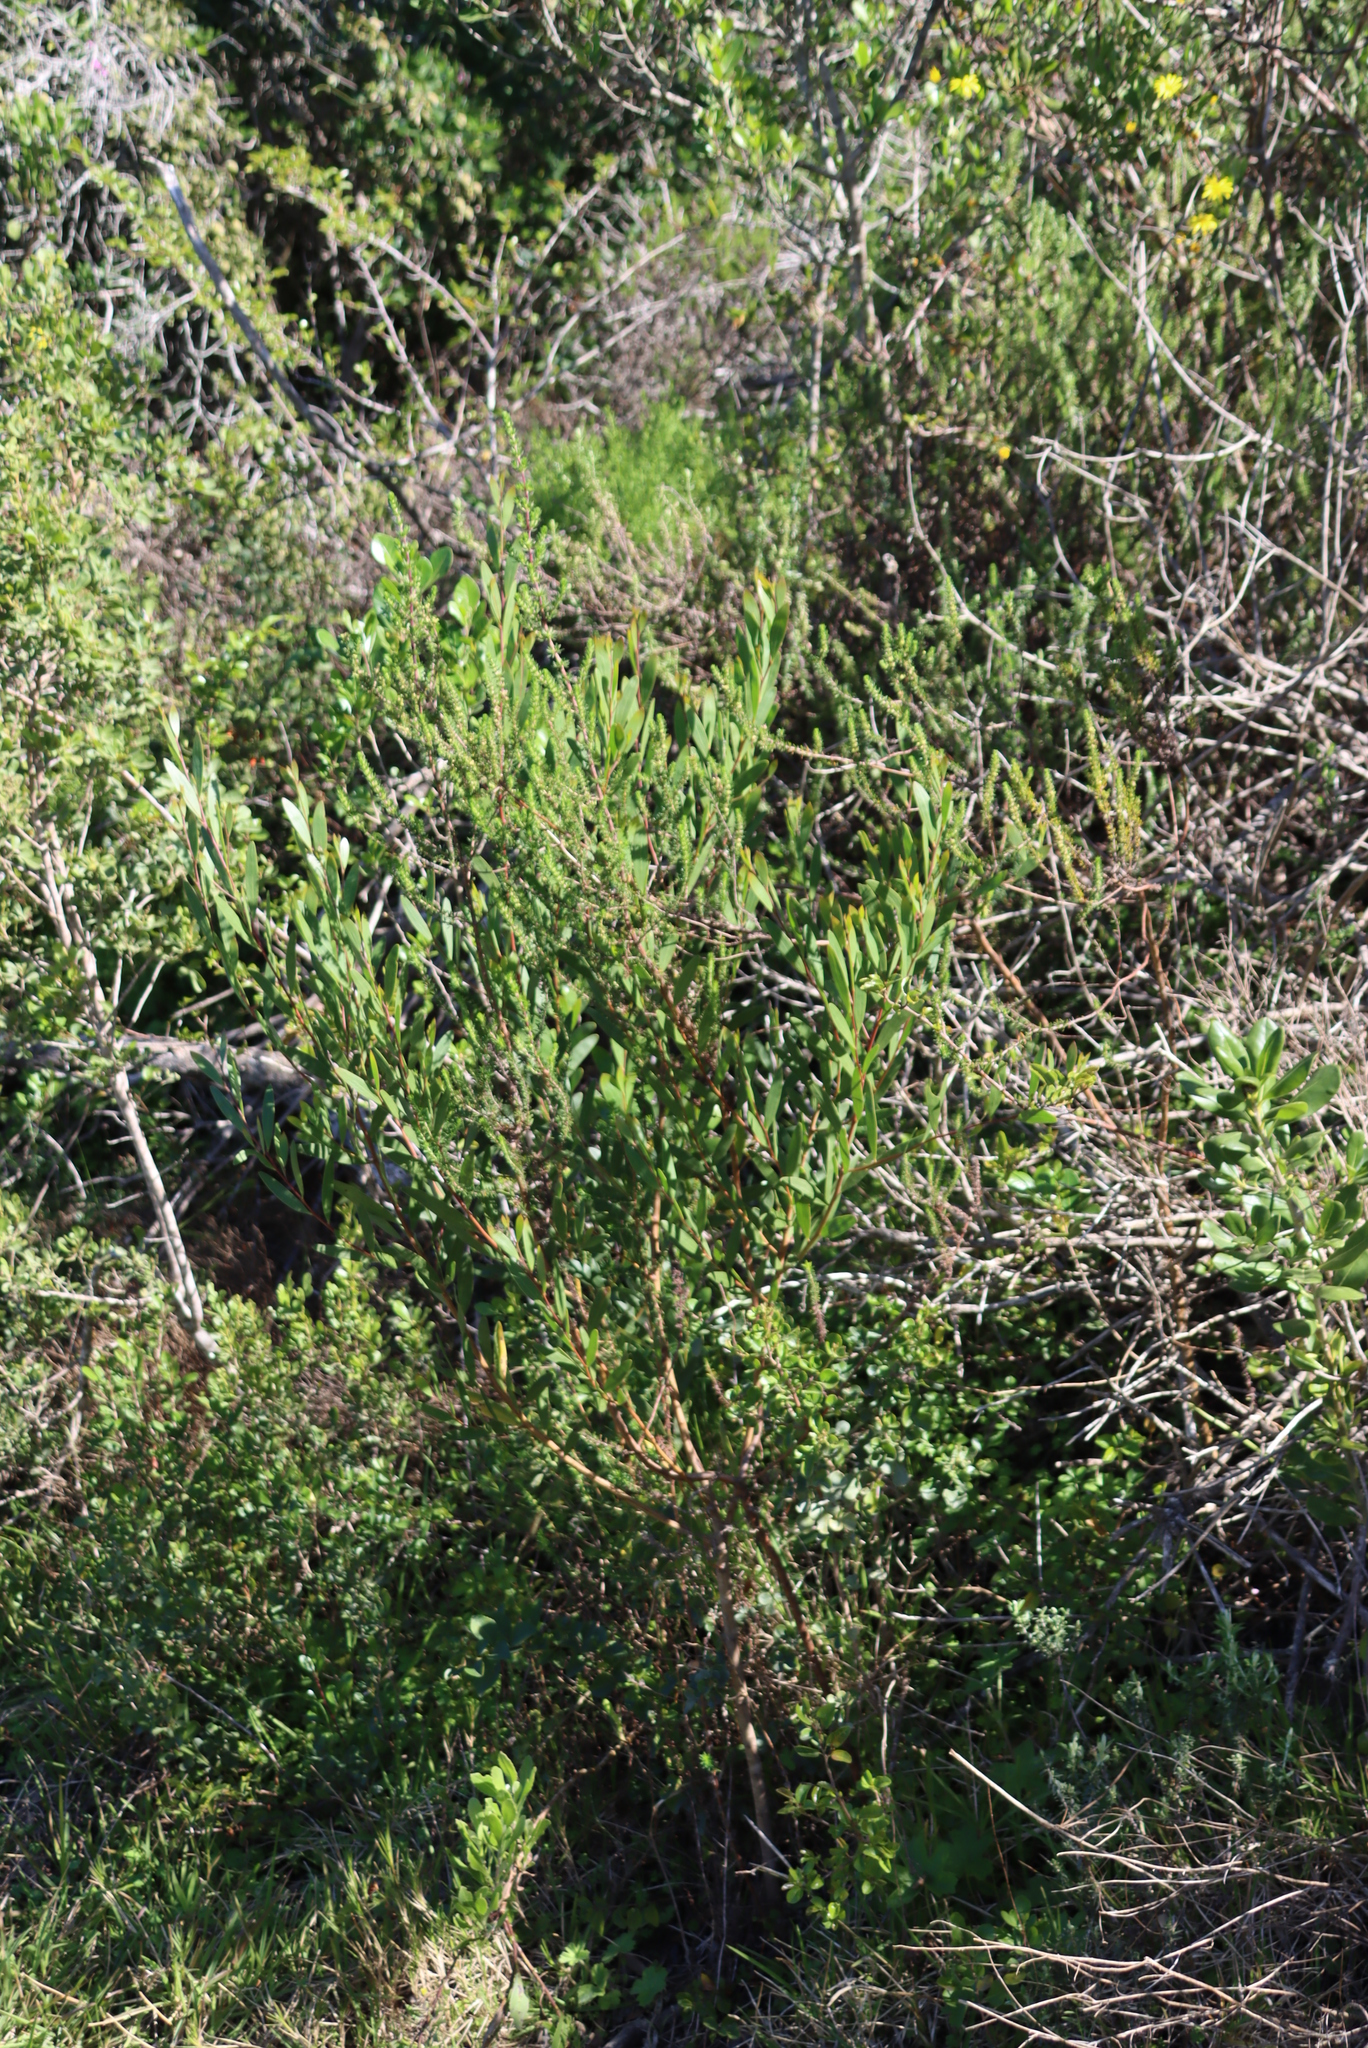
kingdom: Plantae
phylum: Tracheophyta
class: Magnoliopsida
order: Fabales
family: Fabaceae
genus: Acacia
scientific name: Acacia cyclops
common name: Coastal wattle
